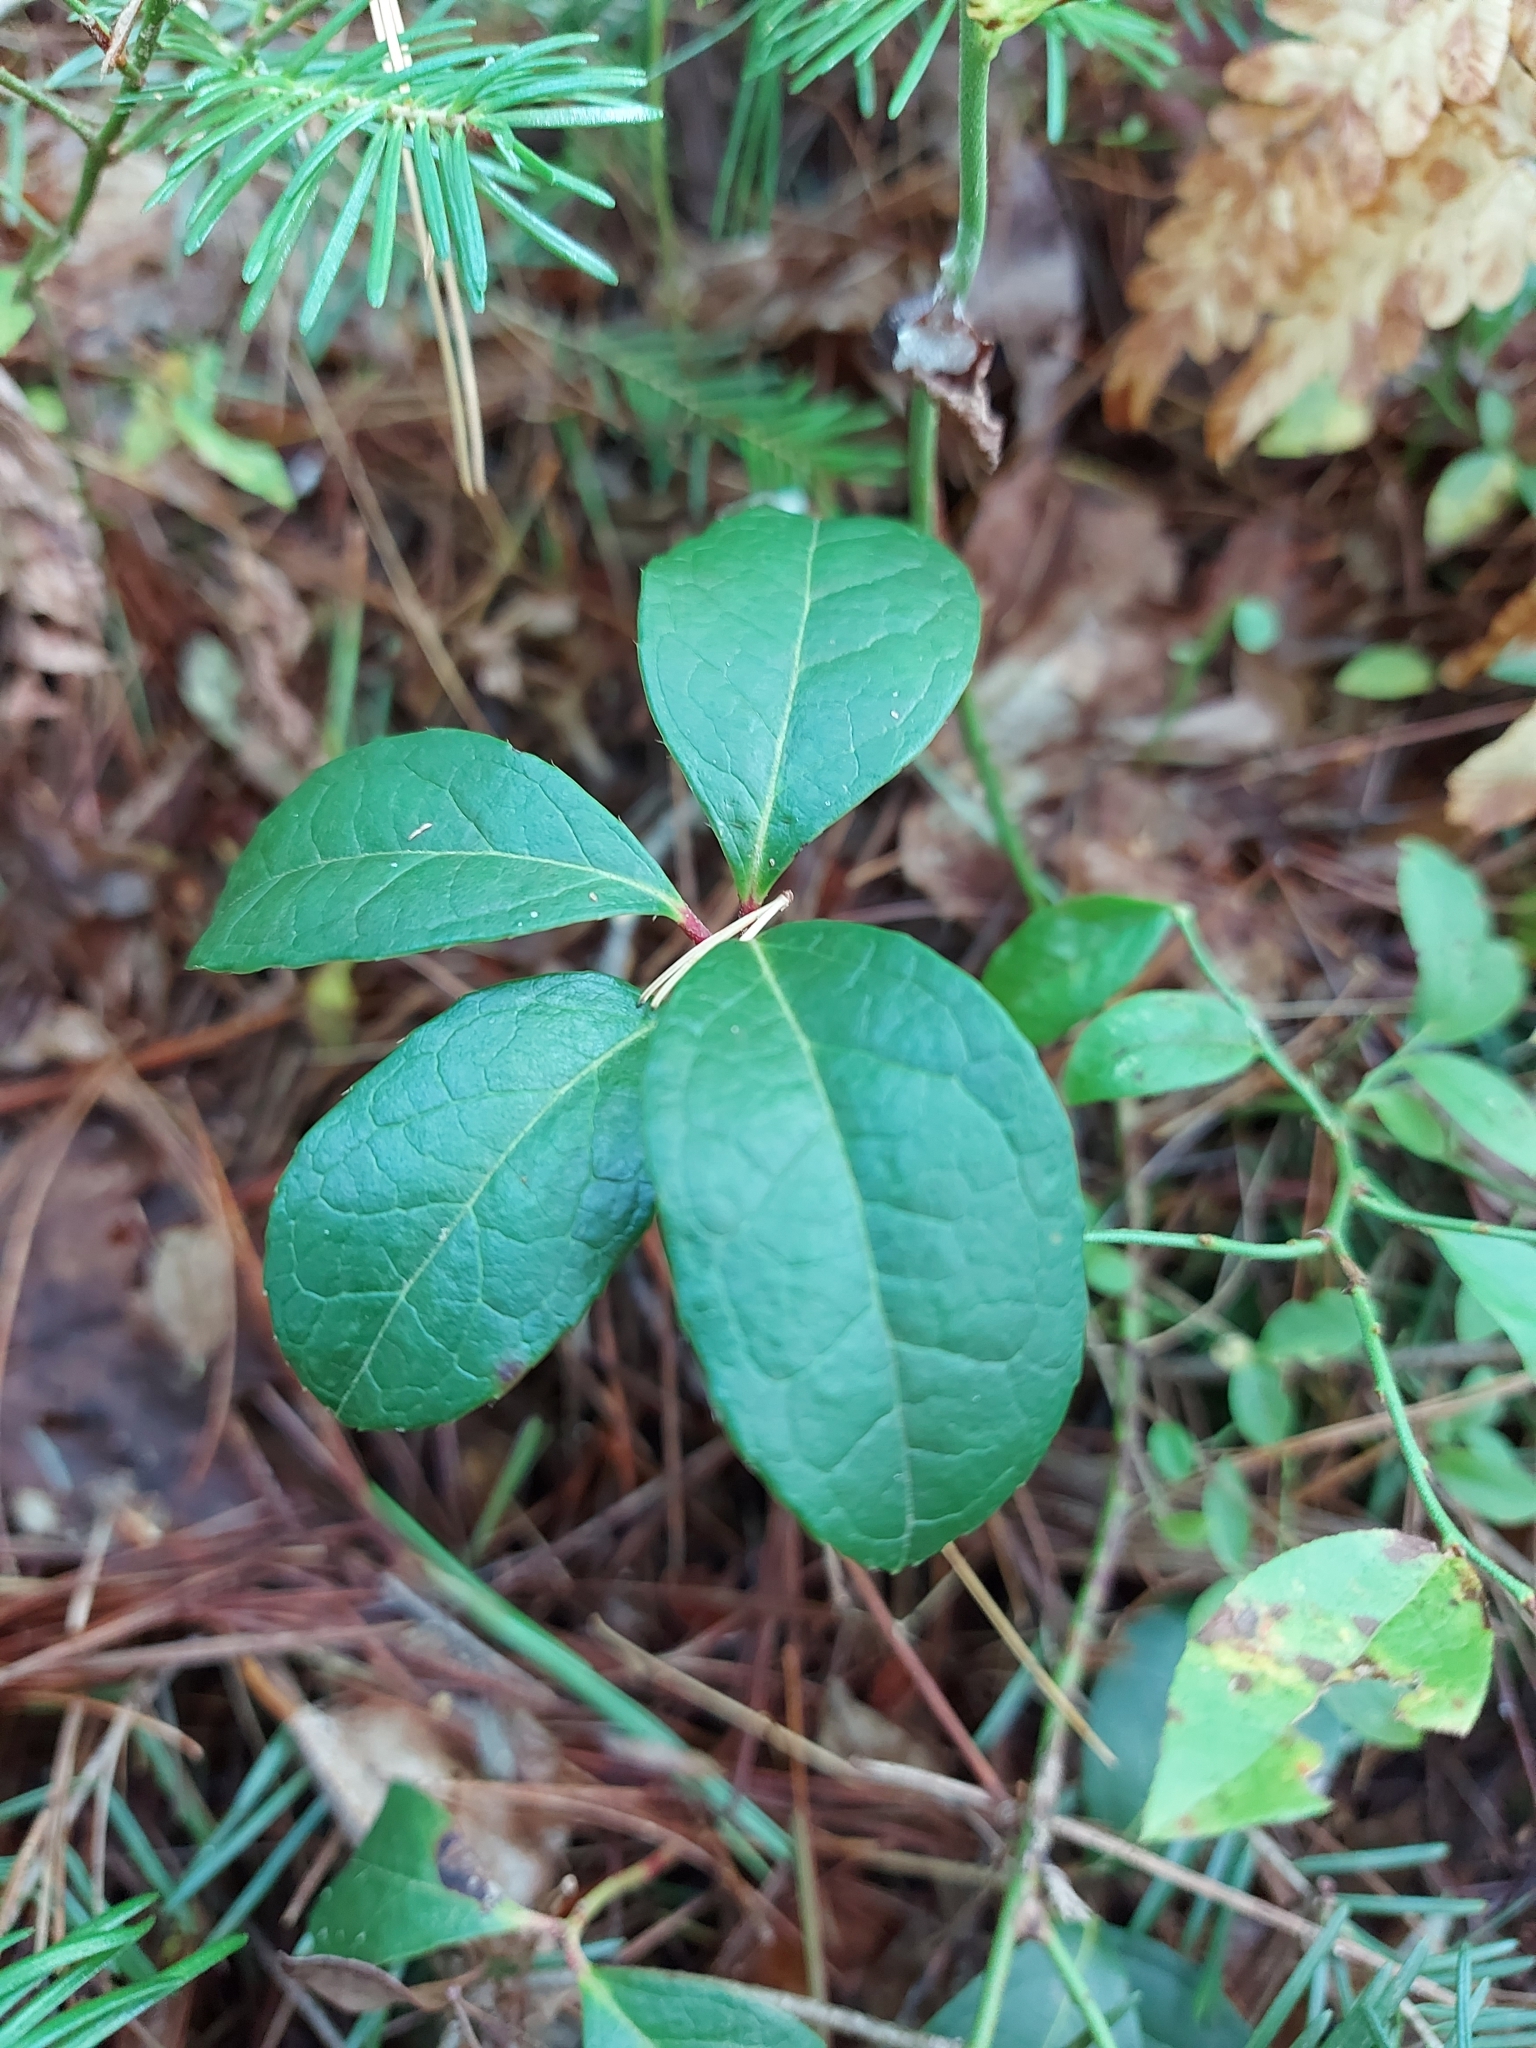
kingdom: Plantae
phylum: Tracheophyta
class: Magnoliopsida
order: Ericales
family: Ericaceae
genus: Gaultheria
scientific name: Gaultheria procumbens
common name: Checkerberry
